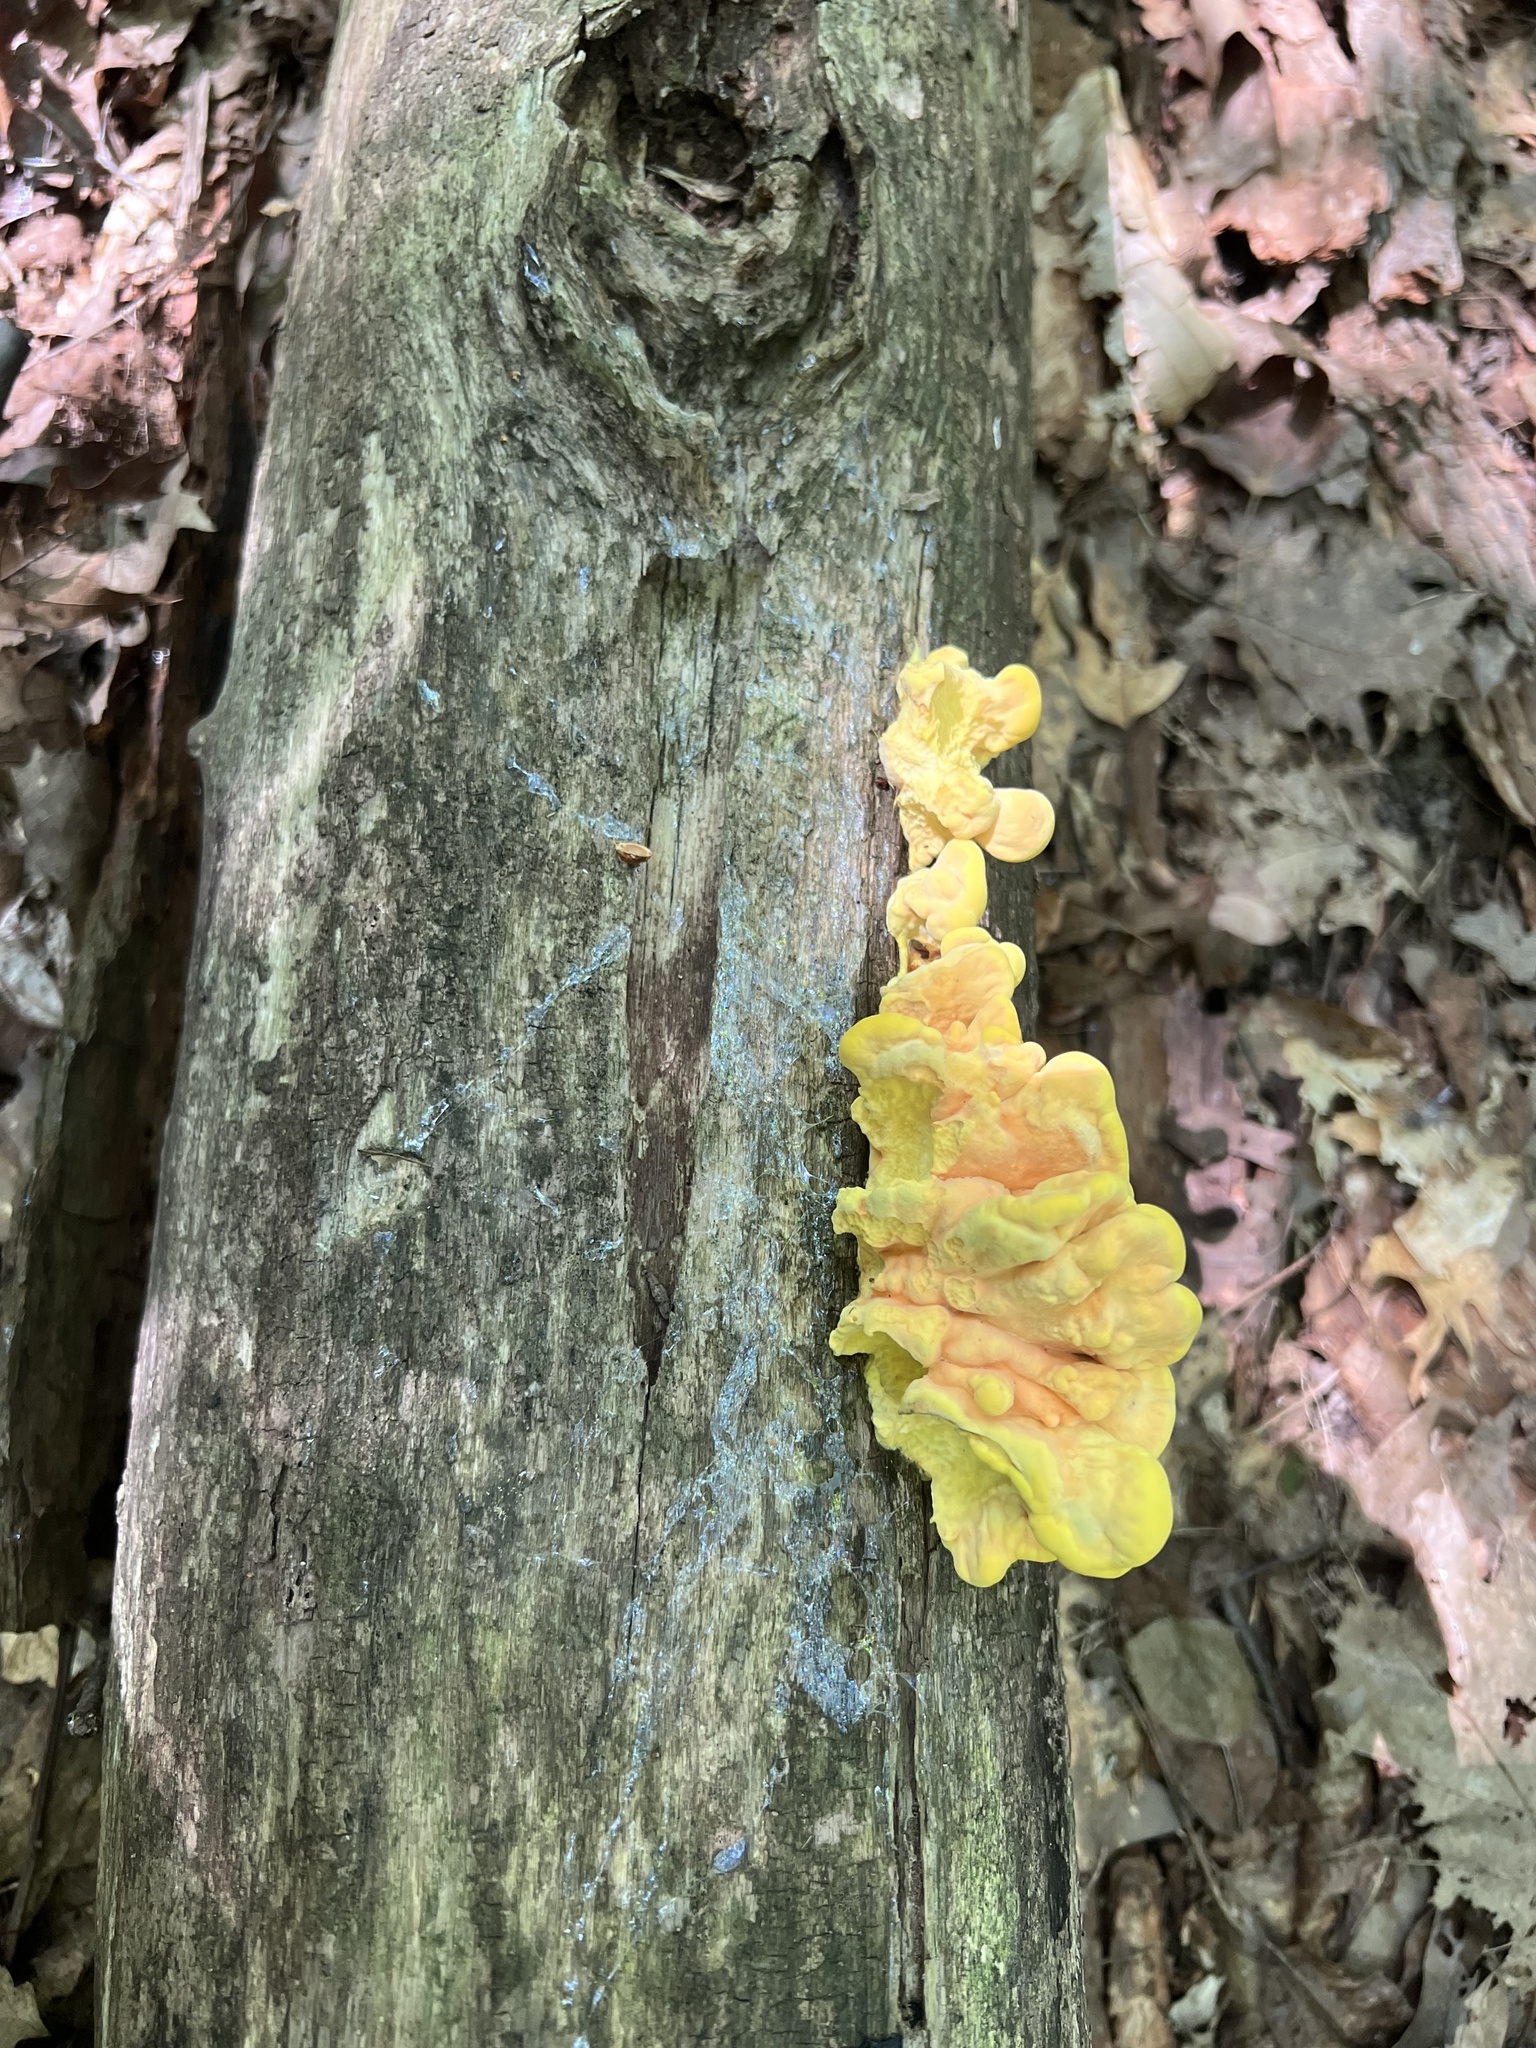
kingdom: Fungi
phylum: Basidiomycota
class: Agaricomycetes
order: Polyporales
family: Laetiporaceae
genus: Laetiporus
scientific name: Laetiporus sulphureus
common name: Chicken of the woods
